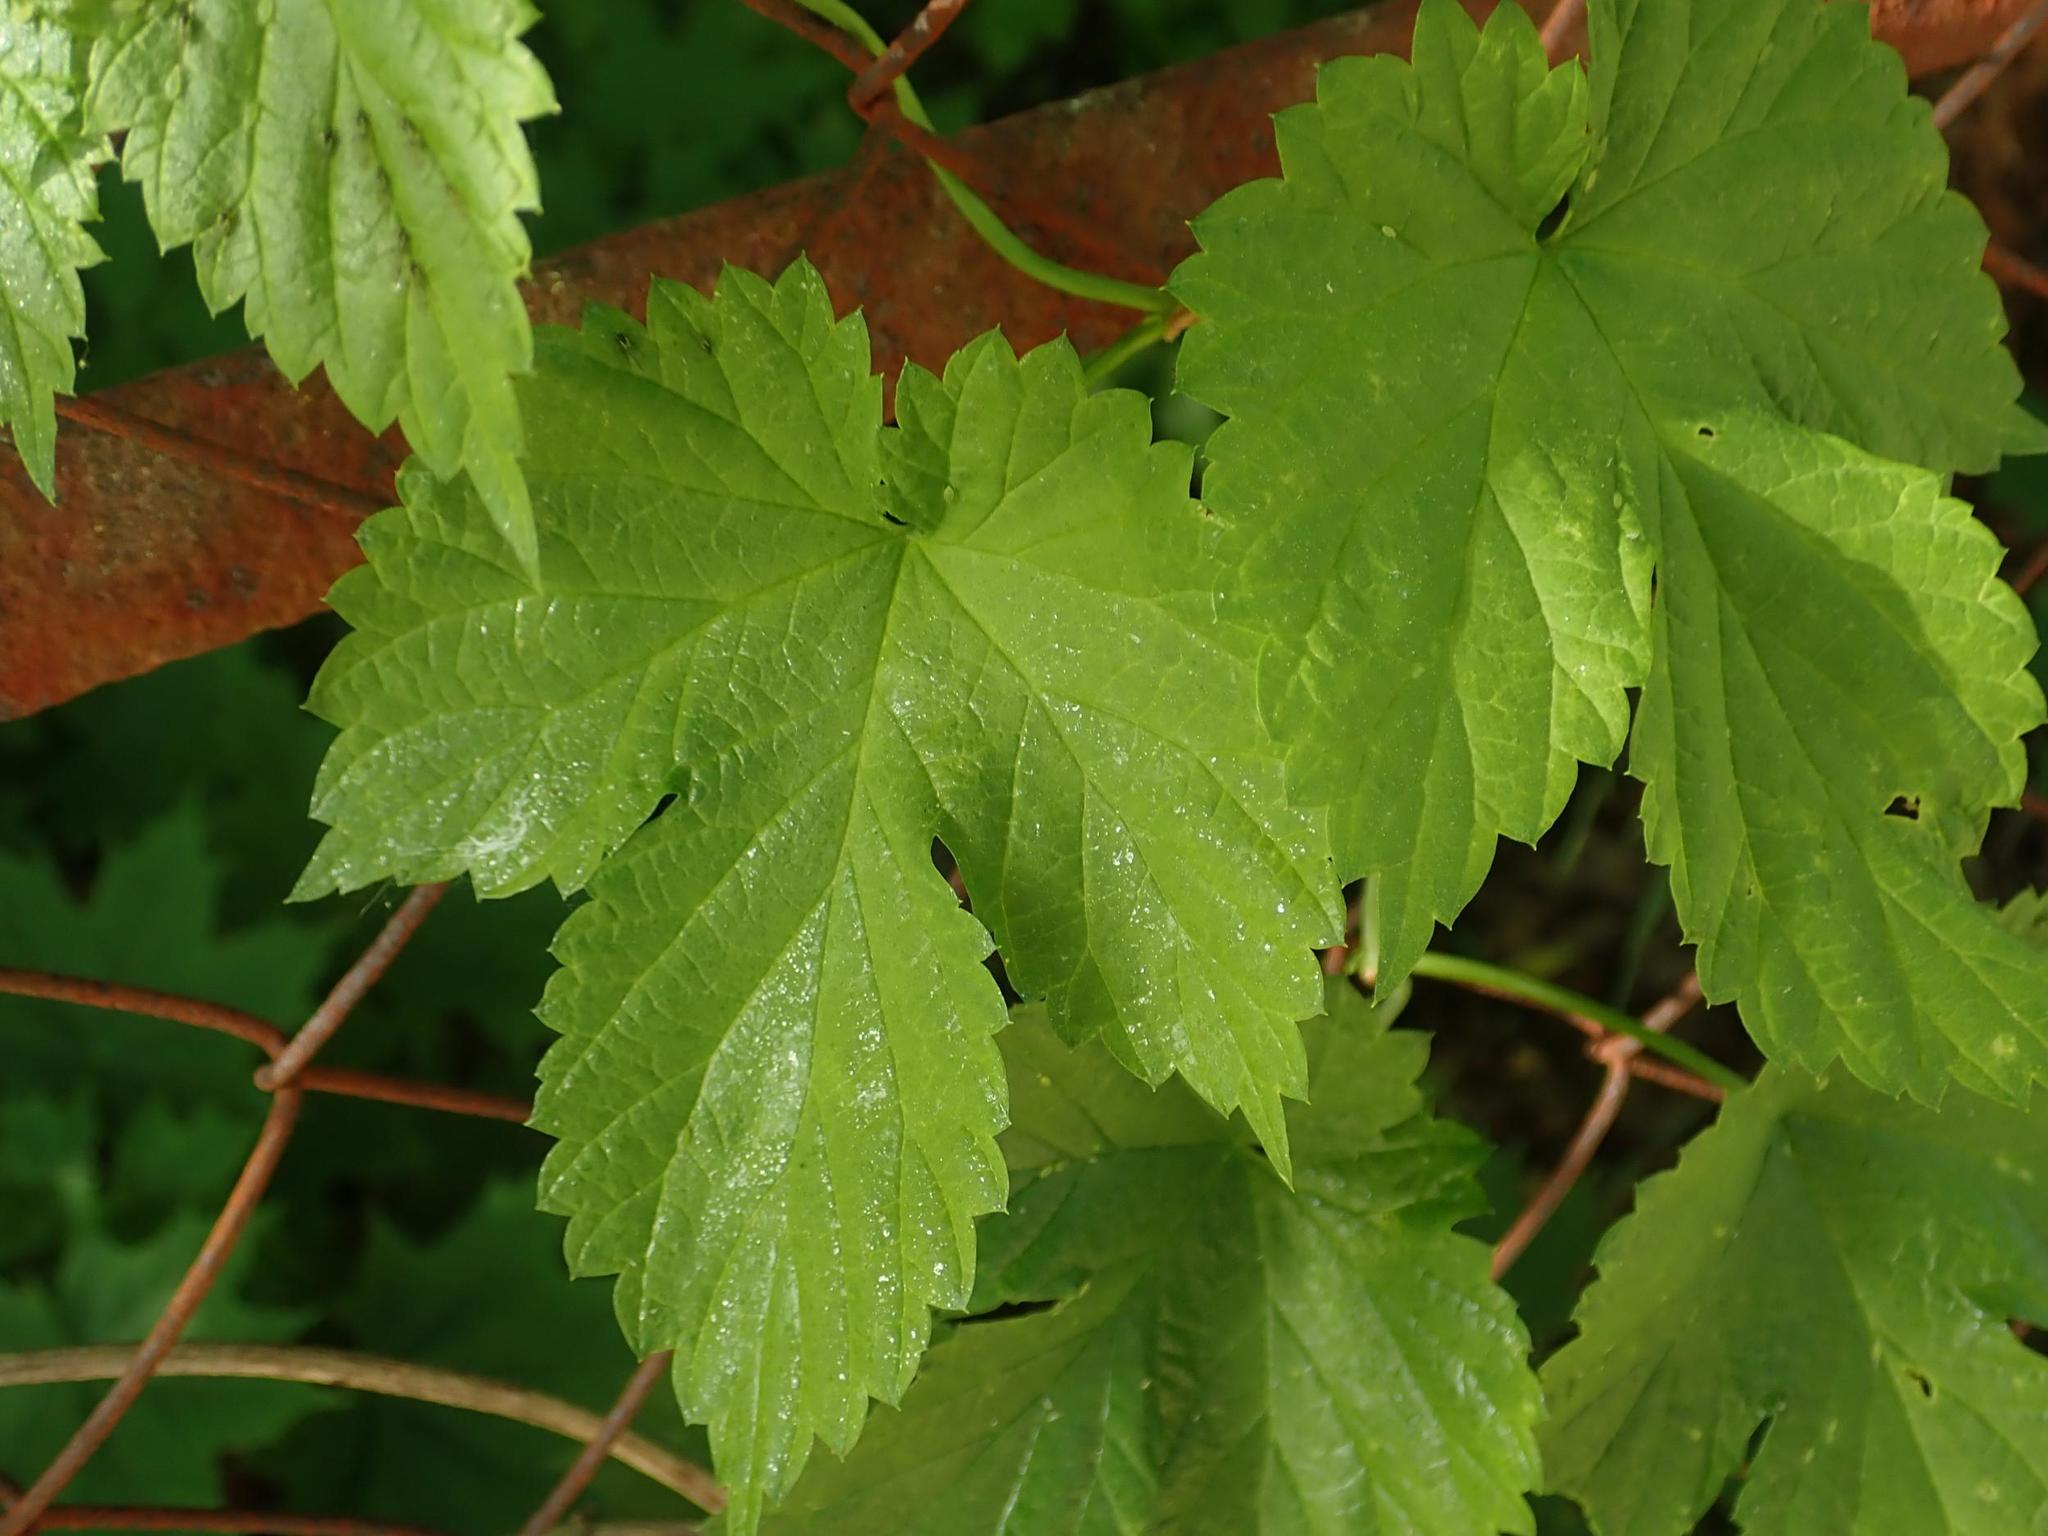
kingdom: Plantae
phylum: Tracheophyta
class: Magnoliopsida
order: Rosales
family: Cannabaceae
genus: Humulus
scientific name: Humulus lupulus
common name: Hop
